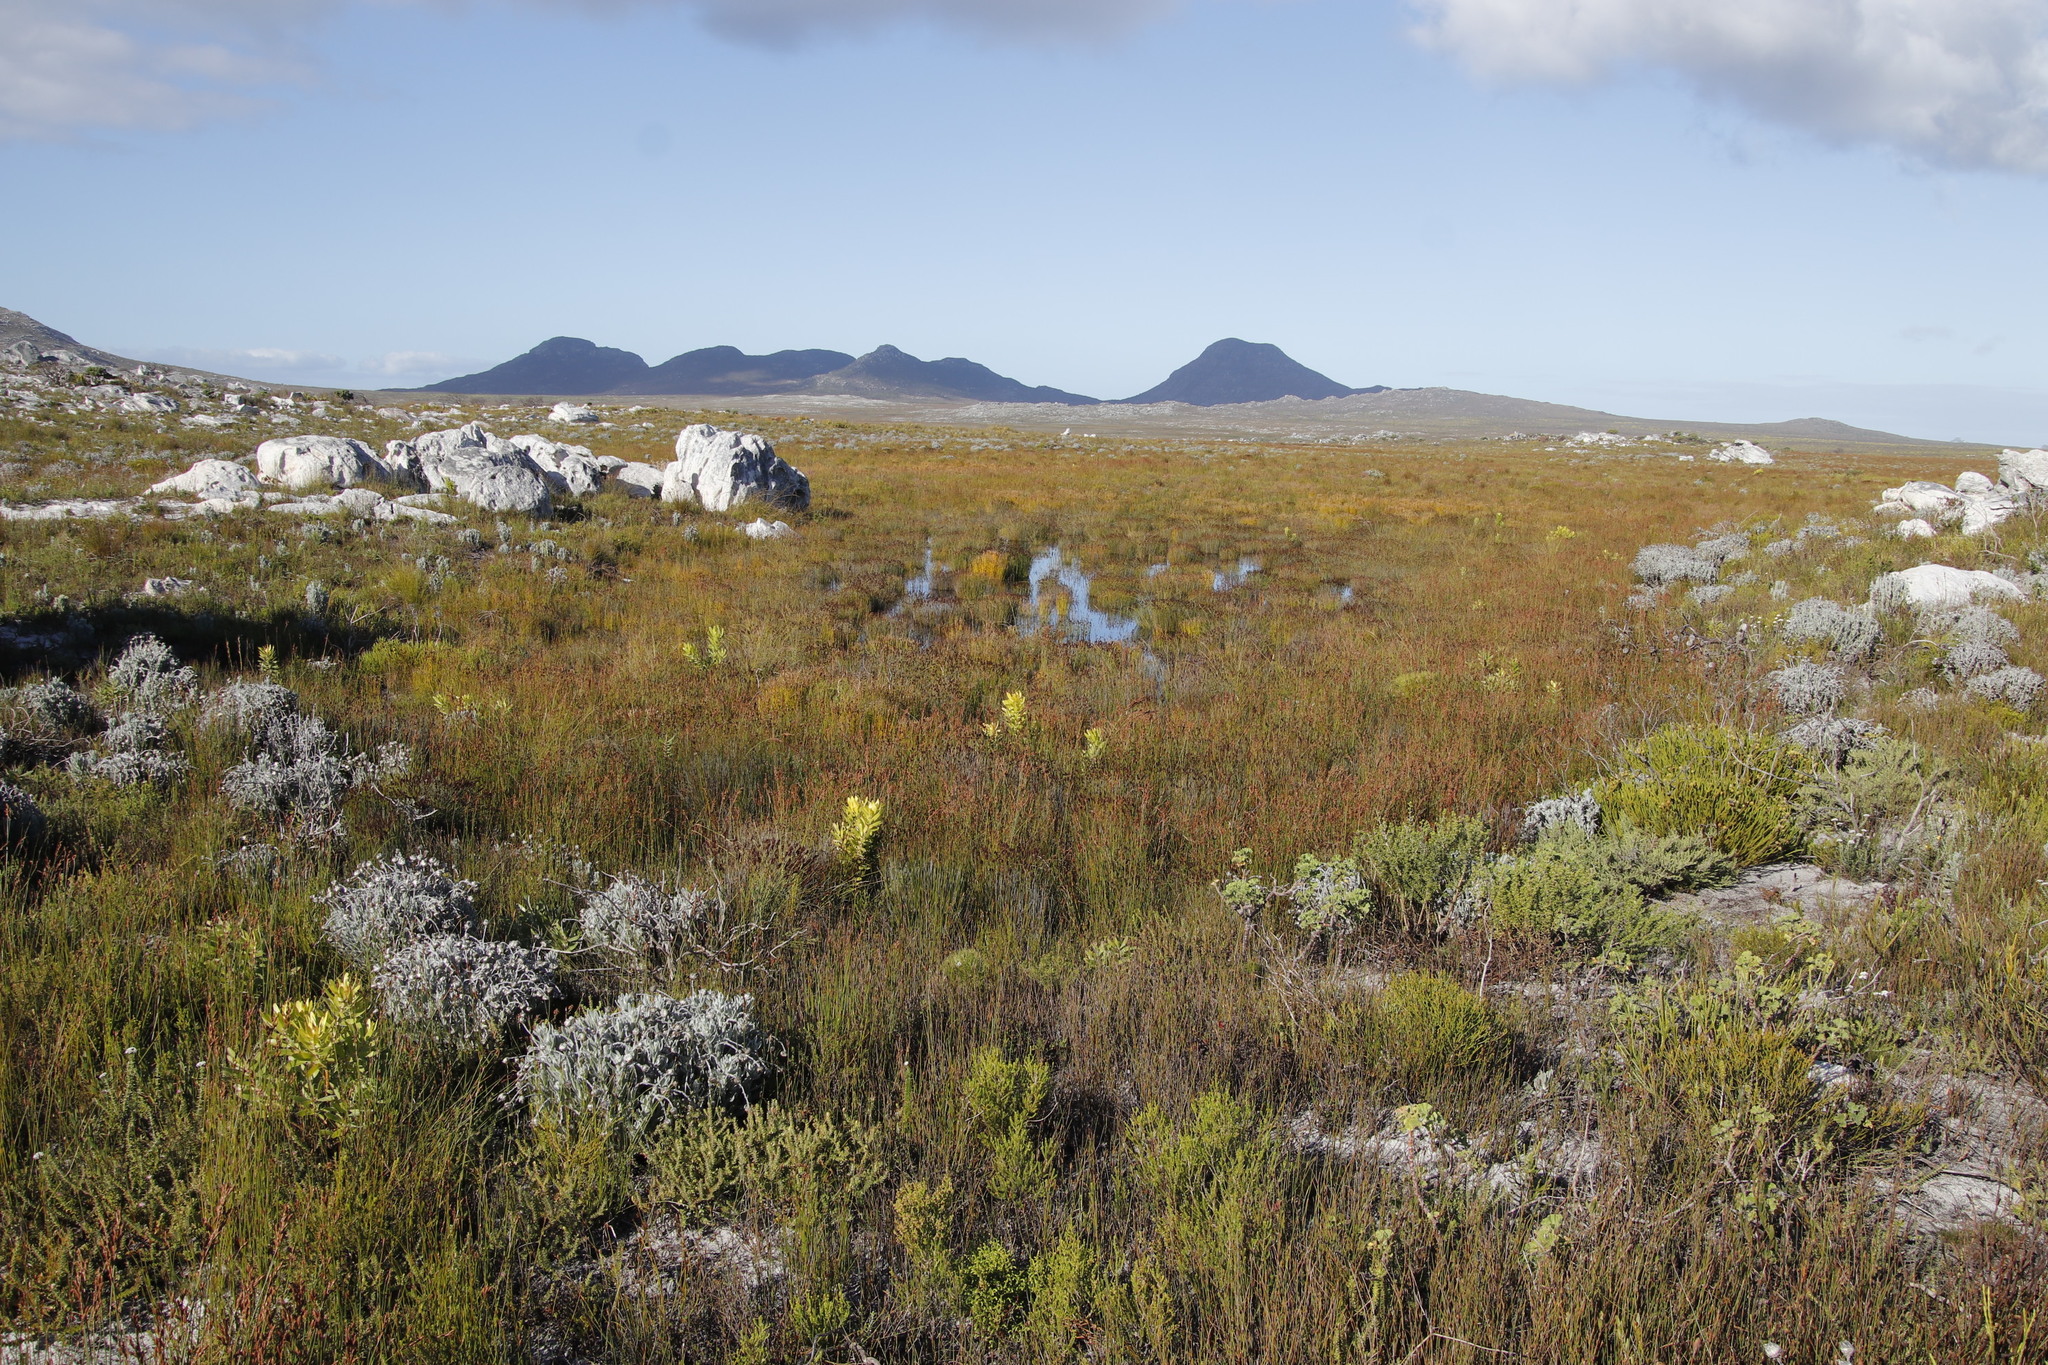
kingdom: Plantae
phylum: Tracheophyta
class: Liliopsida
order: Poales
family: Restionaceae
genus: Elegia
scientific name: Elegia nuda
